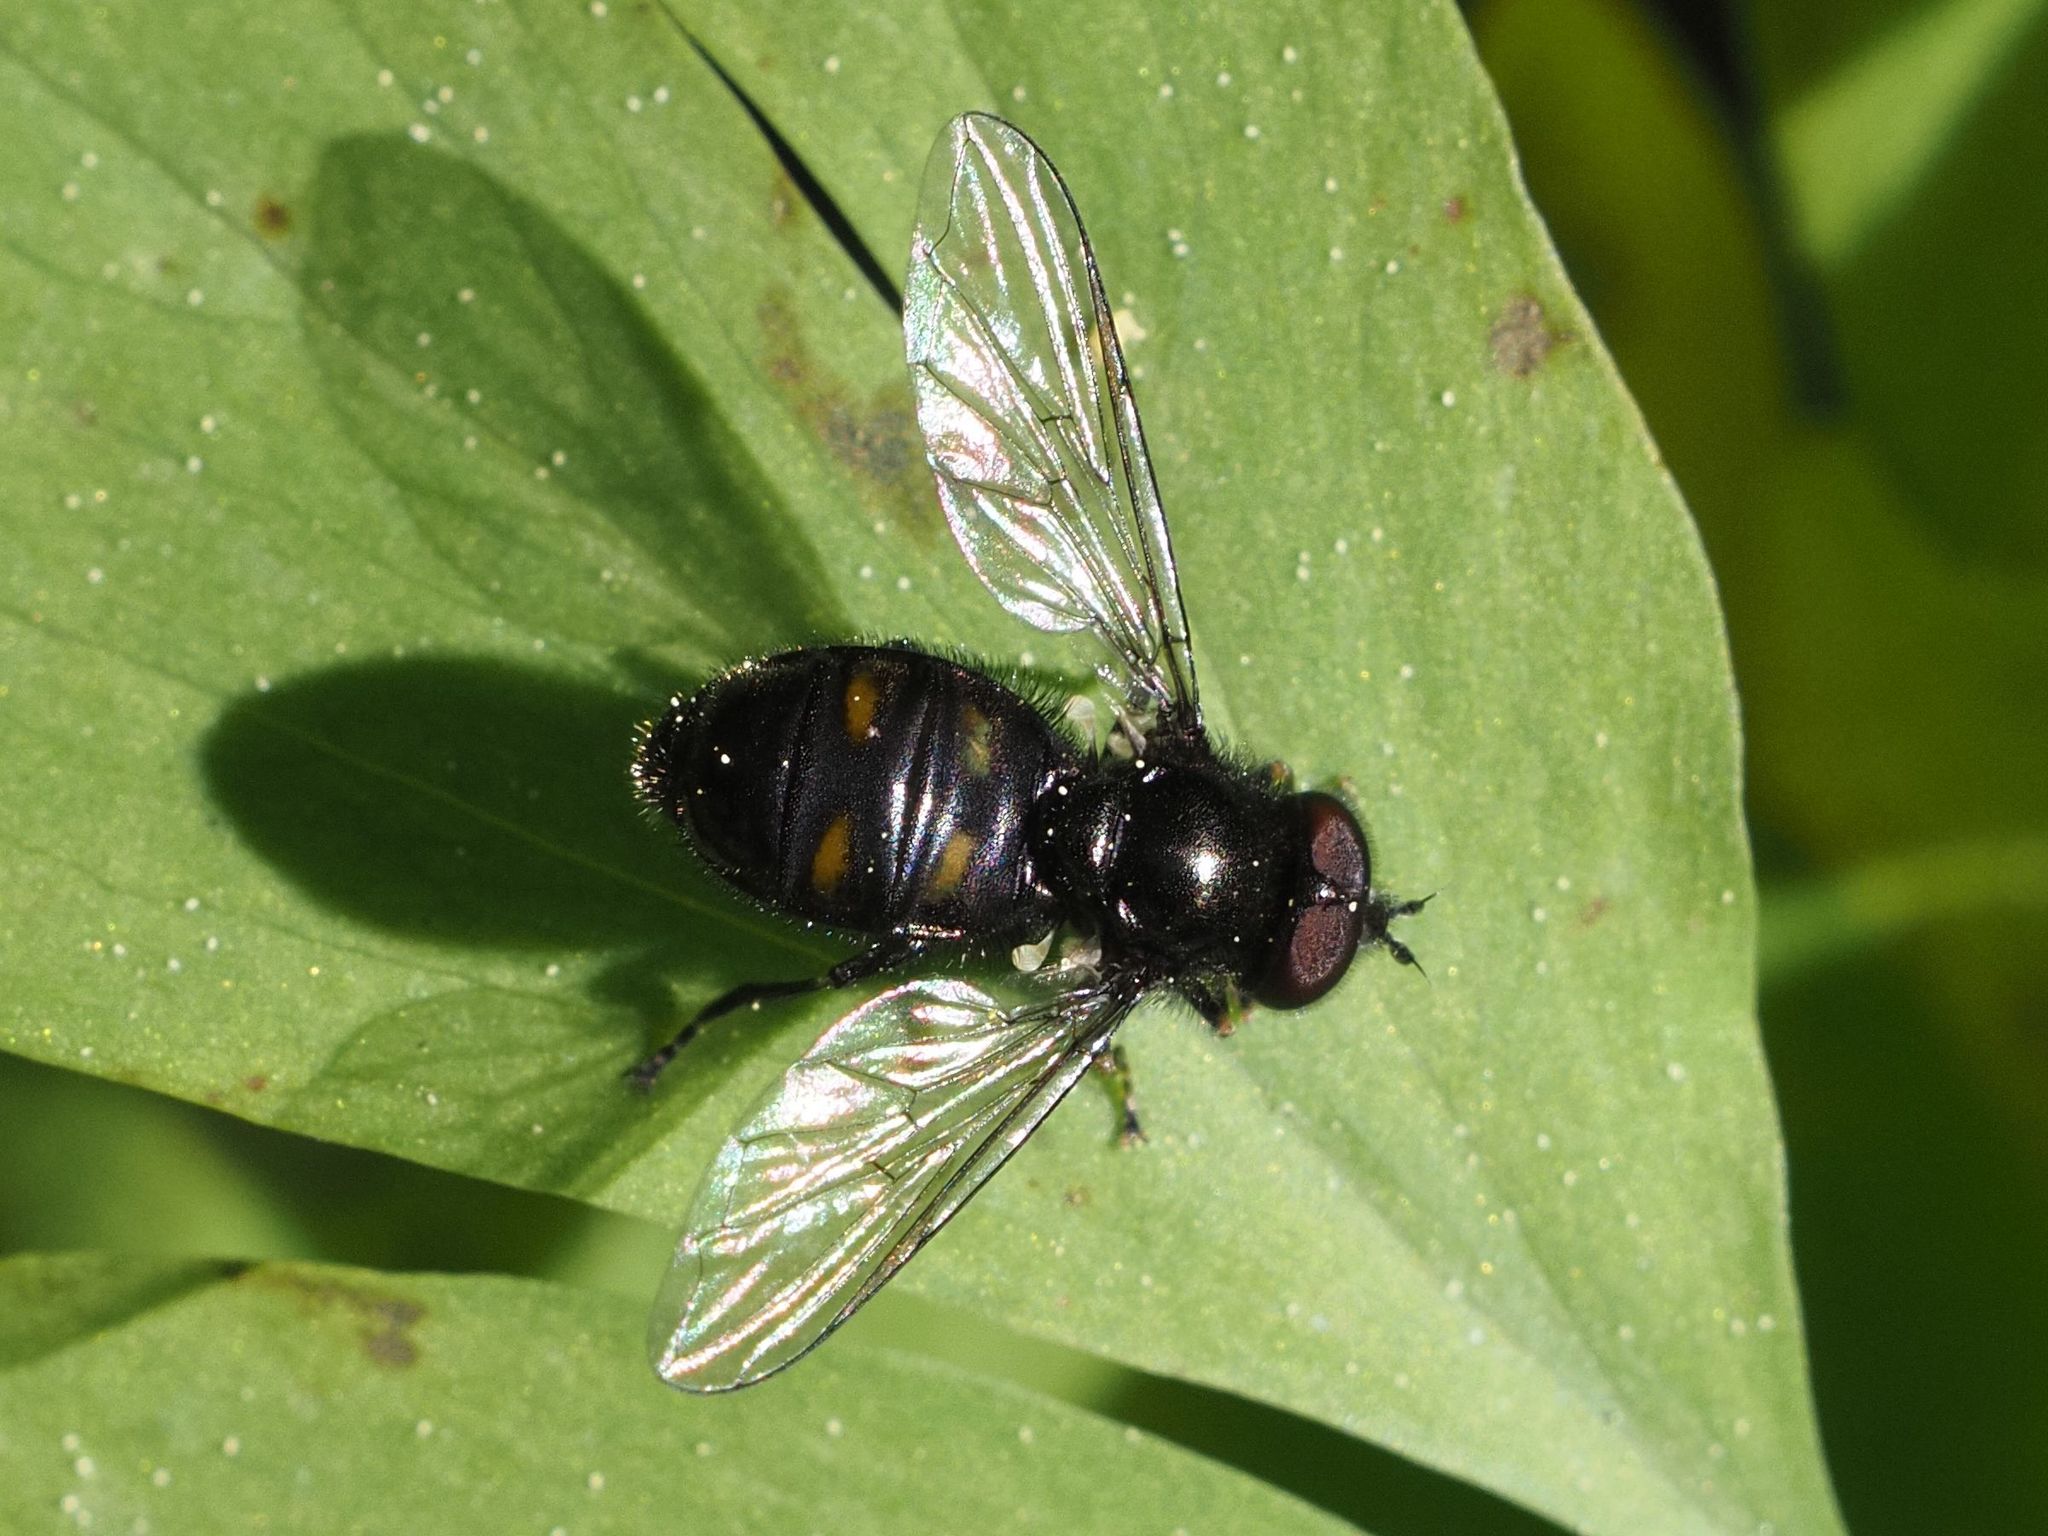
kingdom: Animalia
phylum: Arthropoda
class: Insecta
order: Diptera
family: Syrphidae
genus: Pipiza
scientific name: Pipiza quadrimaculata
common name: Four-spotted pipiza
